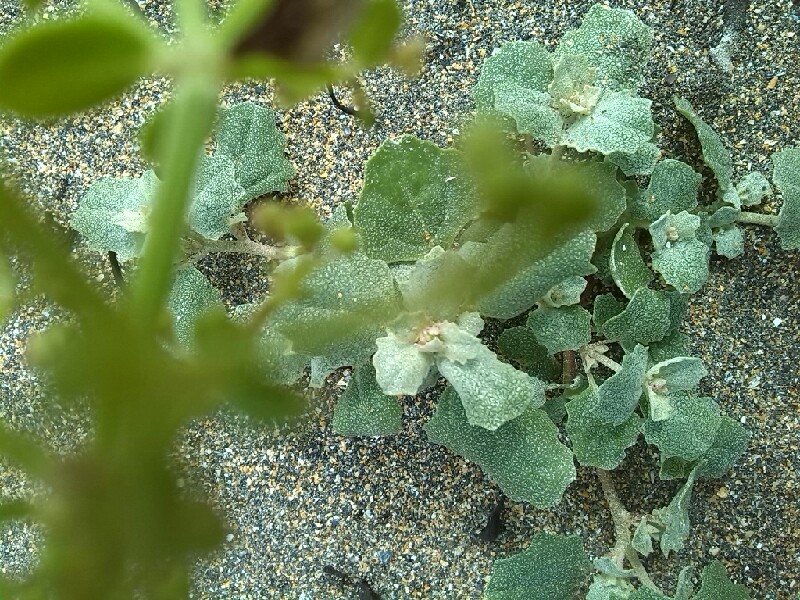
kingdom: Plantae
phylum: Tracheophyta
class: Magnoliopsida
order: Caryophyllales
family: Amaranthaceae
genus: Atriplex
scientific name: Atriplex laciniata
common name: Frosted orache
